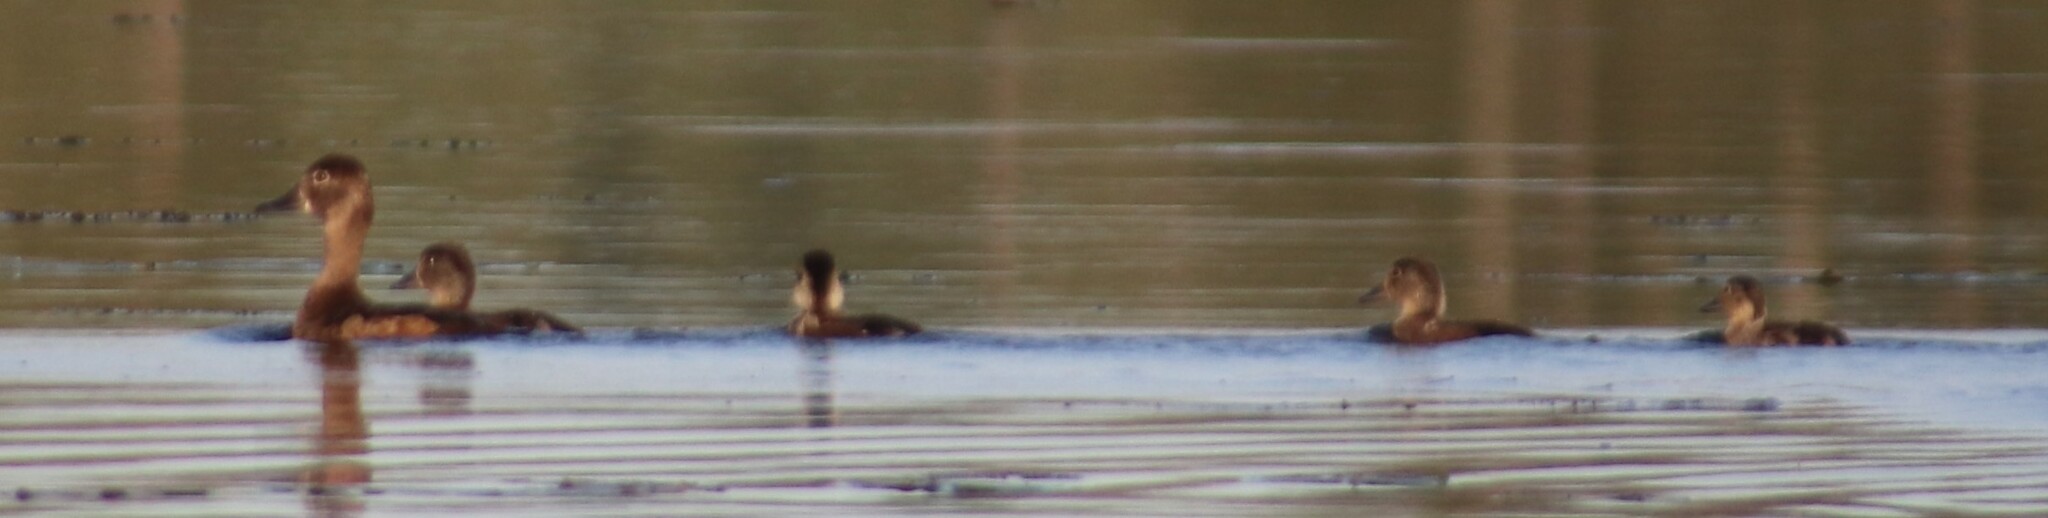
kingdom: Animalia
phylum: Chordata
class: Aves
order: Anseriformes
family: Anatidae
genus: Aythya
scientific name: Aythya collaris
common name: Ring-necked duck
